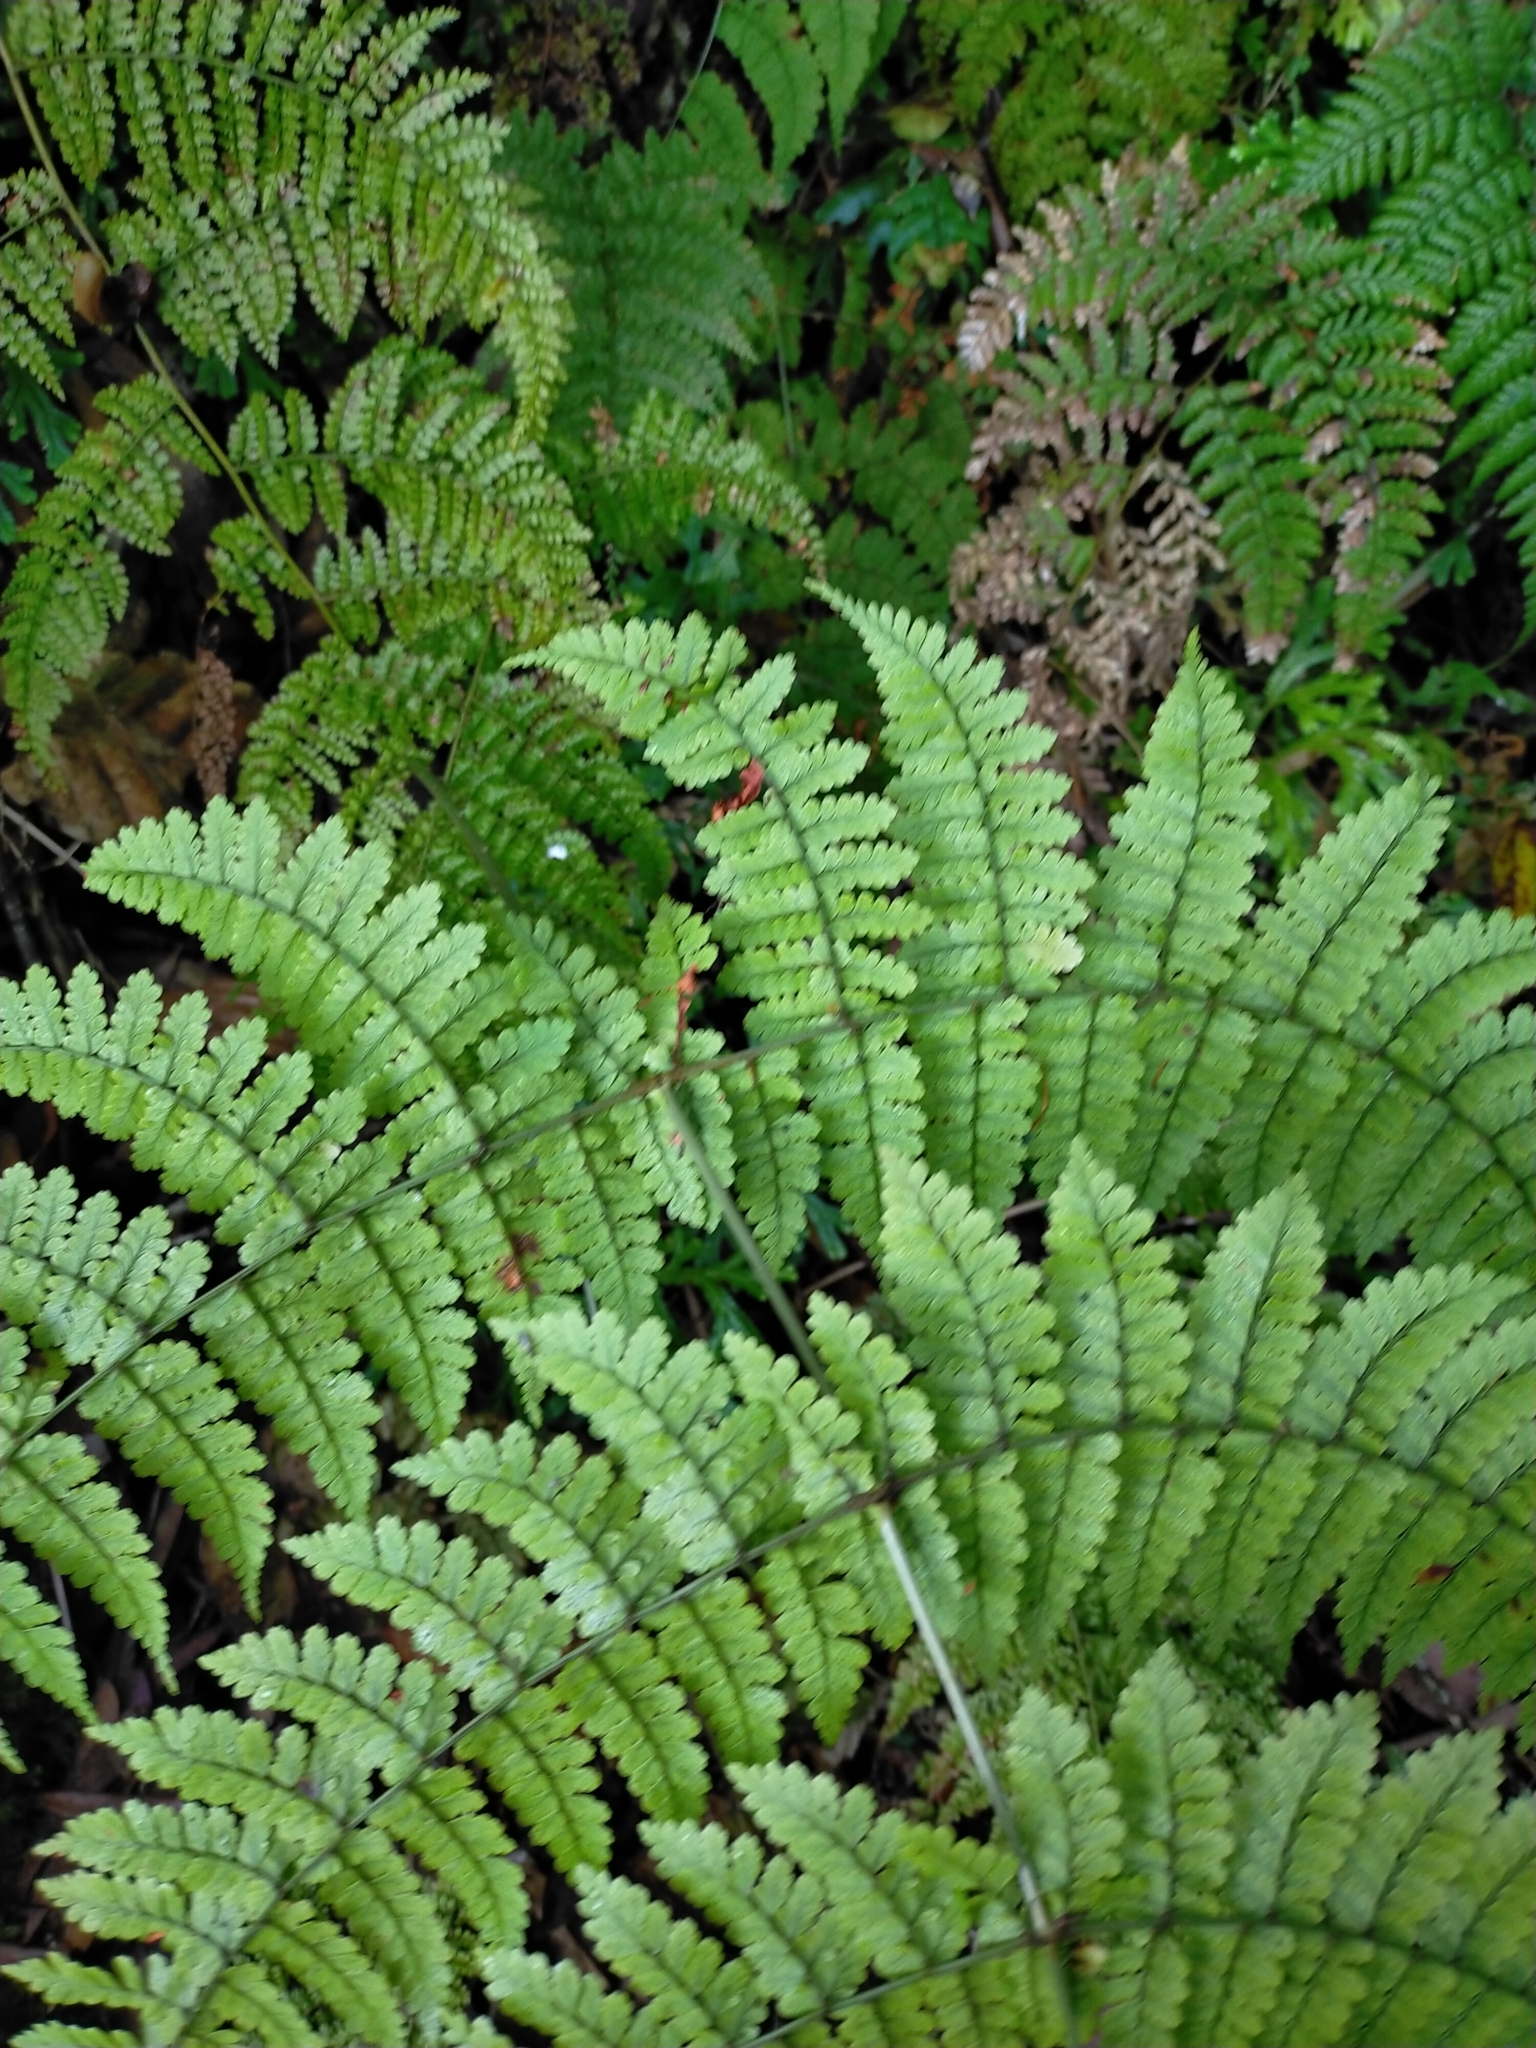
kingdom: Plantae
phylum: Tracheophyta
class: Polypodiopsida
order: Polypodiales
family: Dryopteridaceae
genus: Dryopteris
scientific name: Dryopteris paleolata
